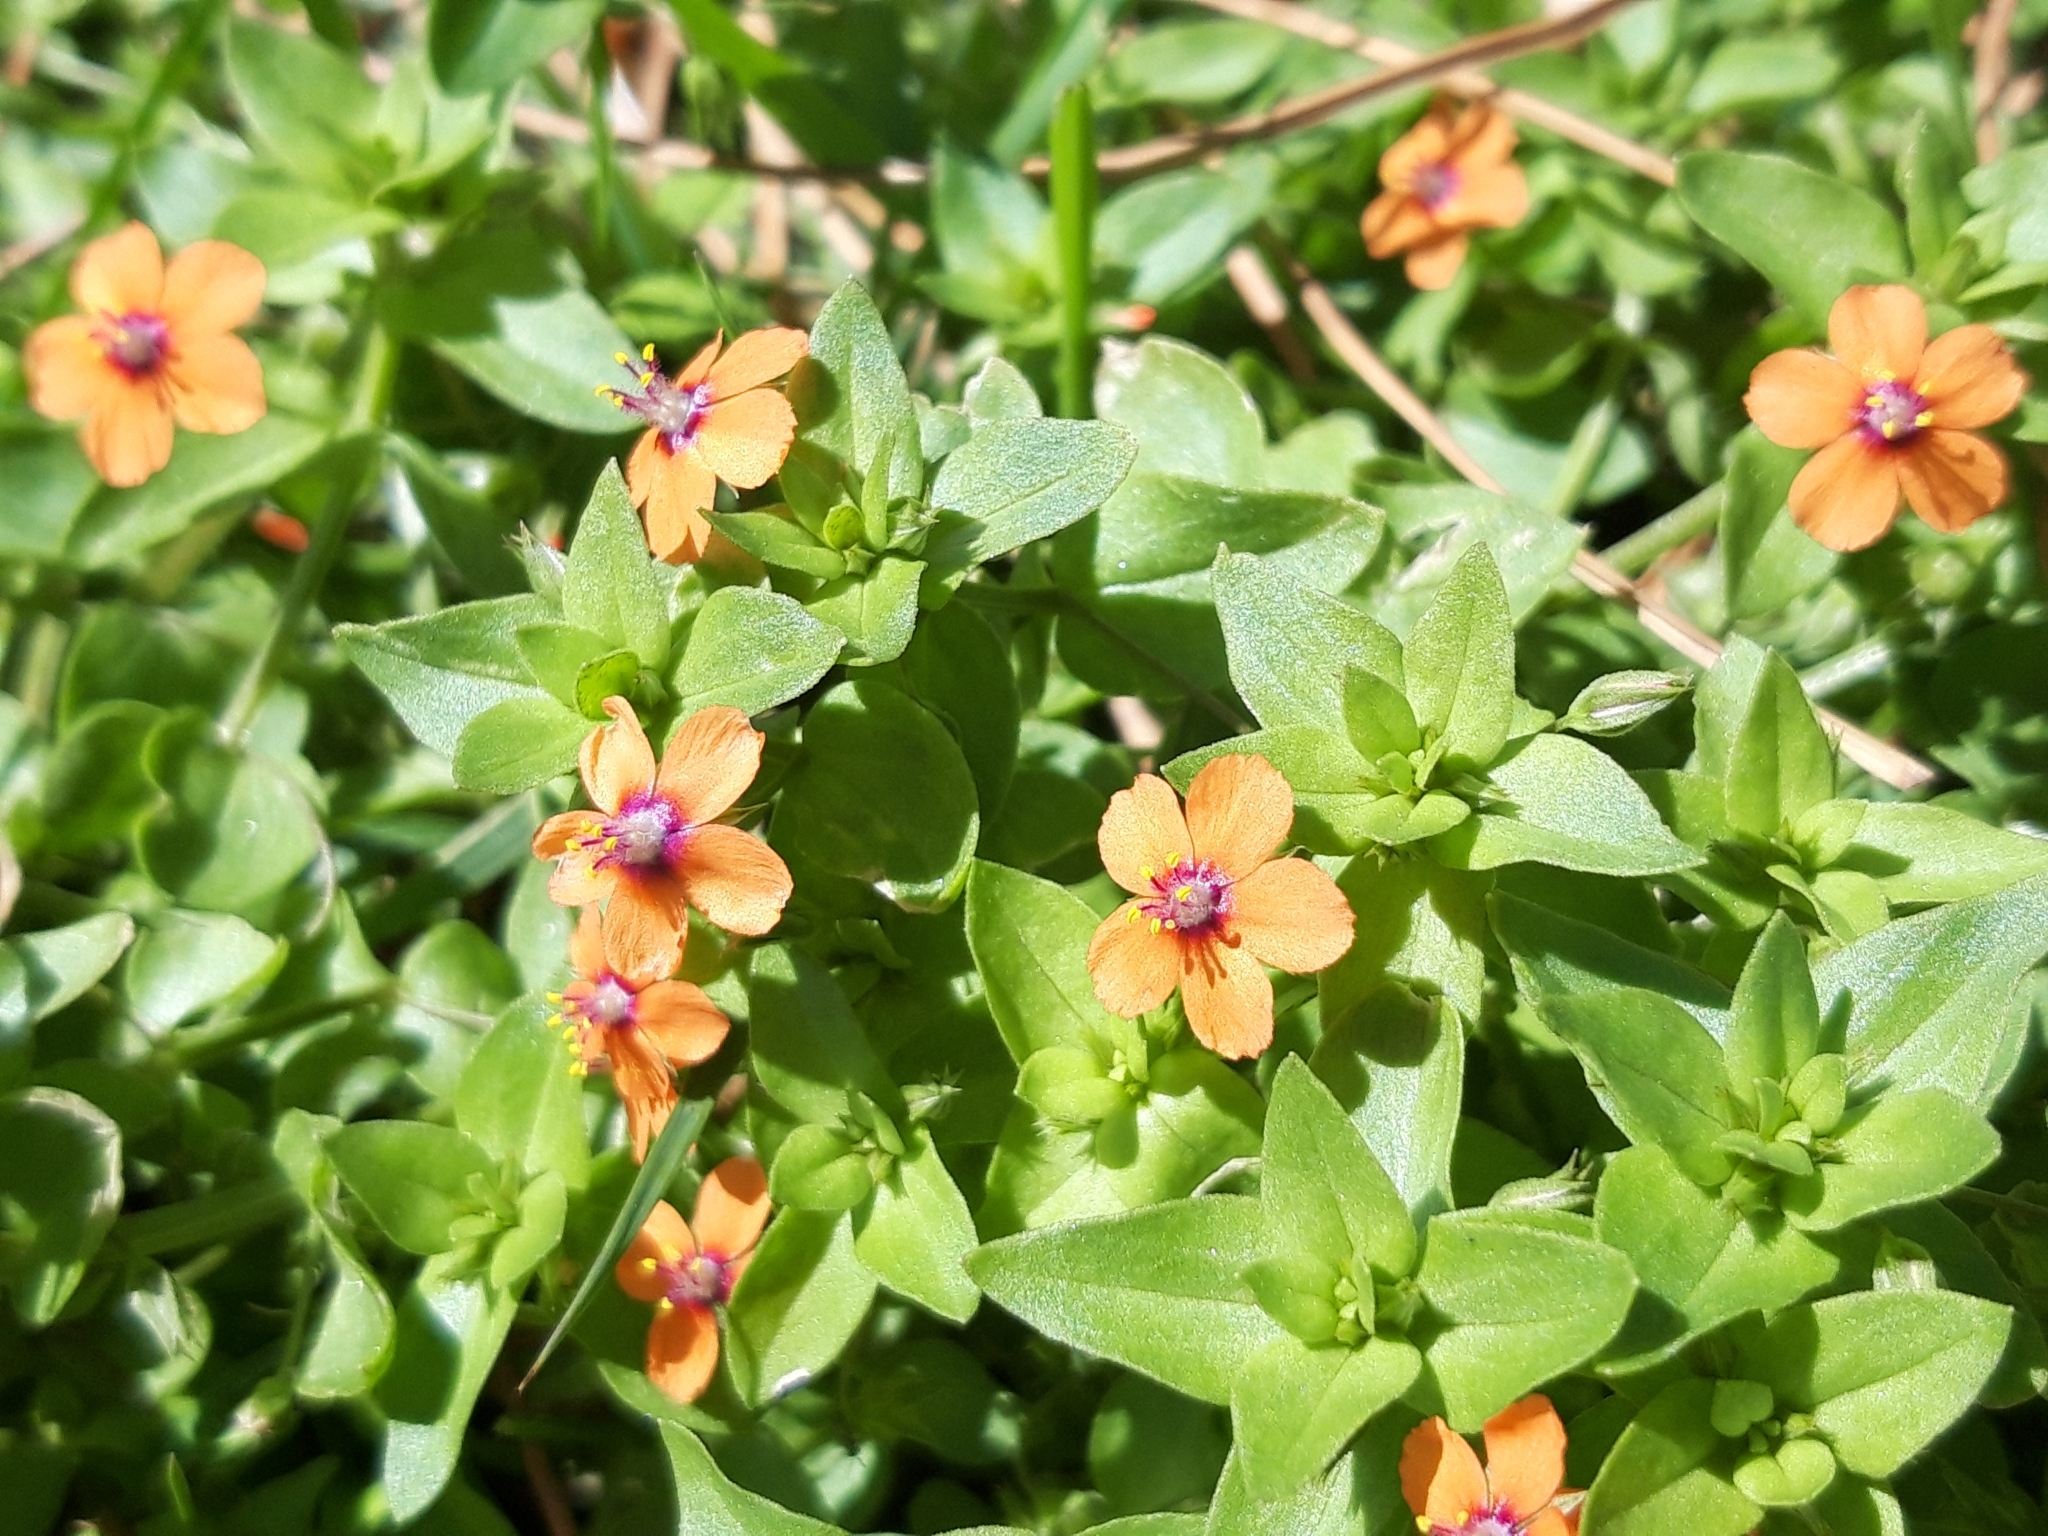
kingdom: Plantae
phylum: Tracheophyta
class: Magnoliopsida
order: Ericales
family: Primulaceae
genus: Lysimachia
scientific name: Lysimachia arvensis
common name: Scarlet pimpernel
